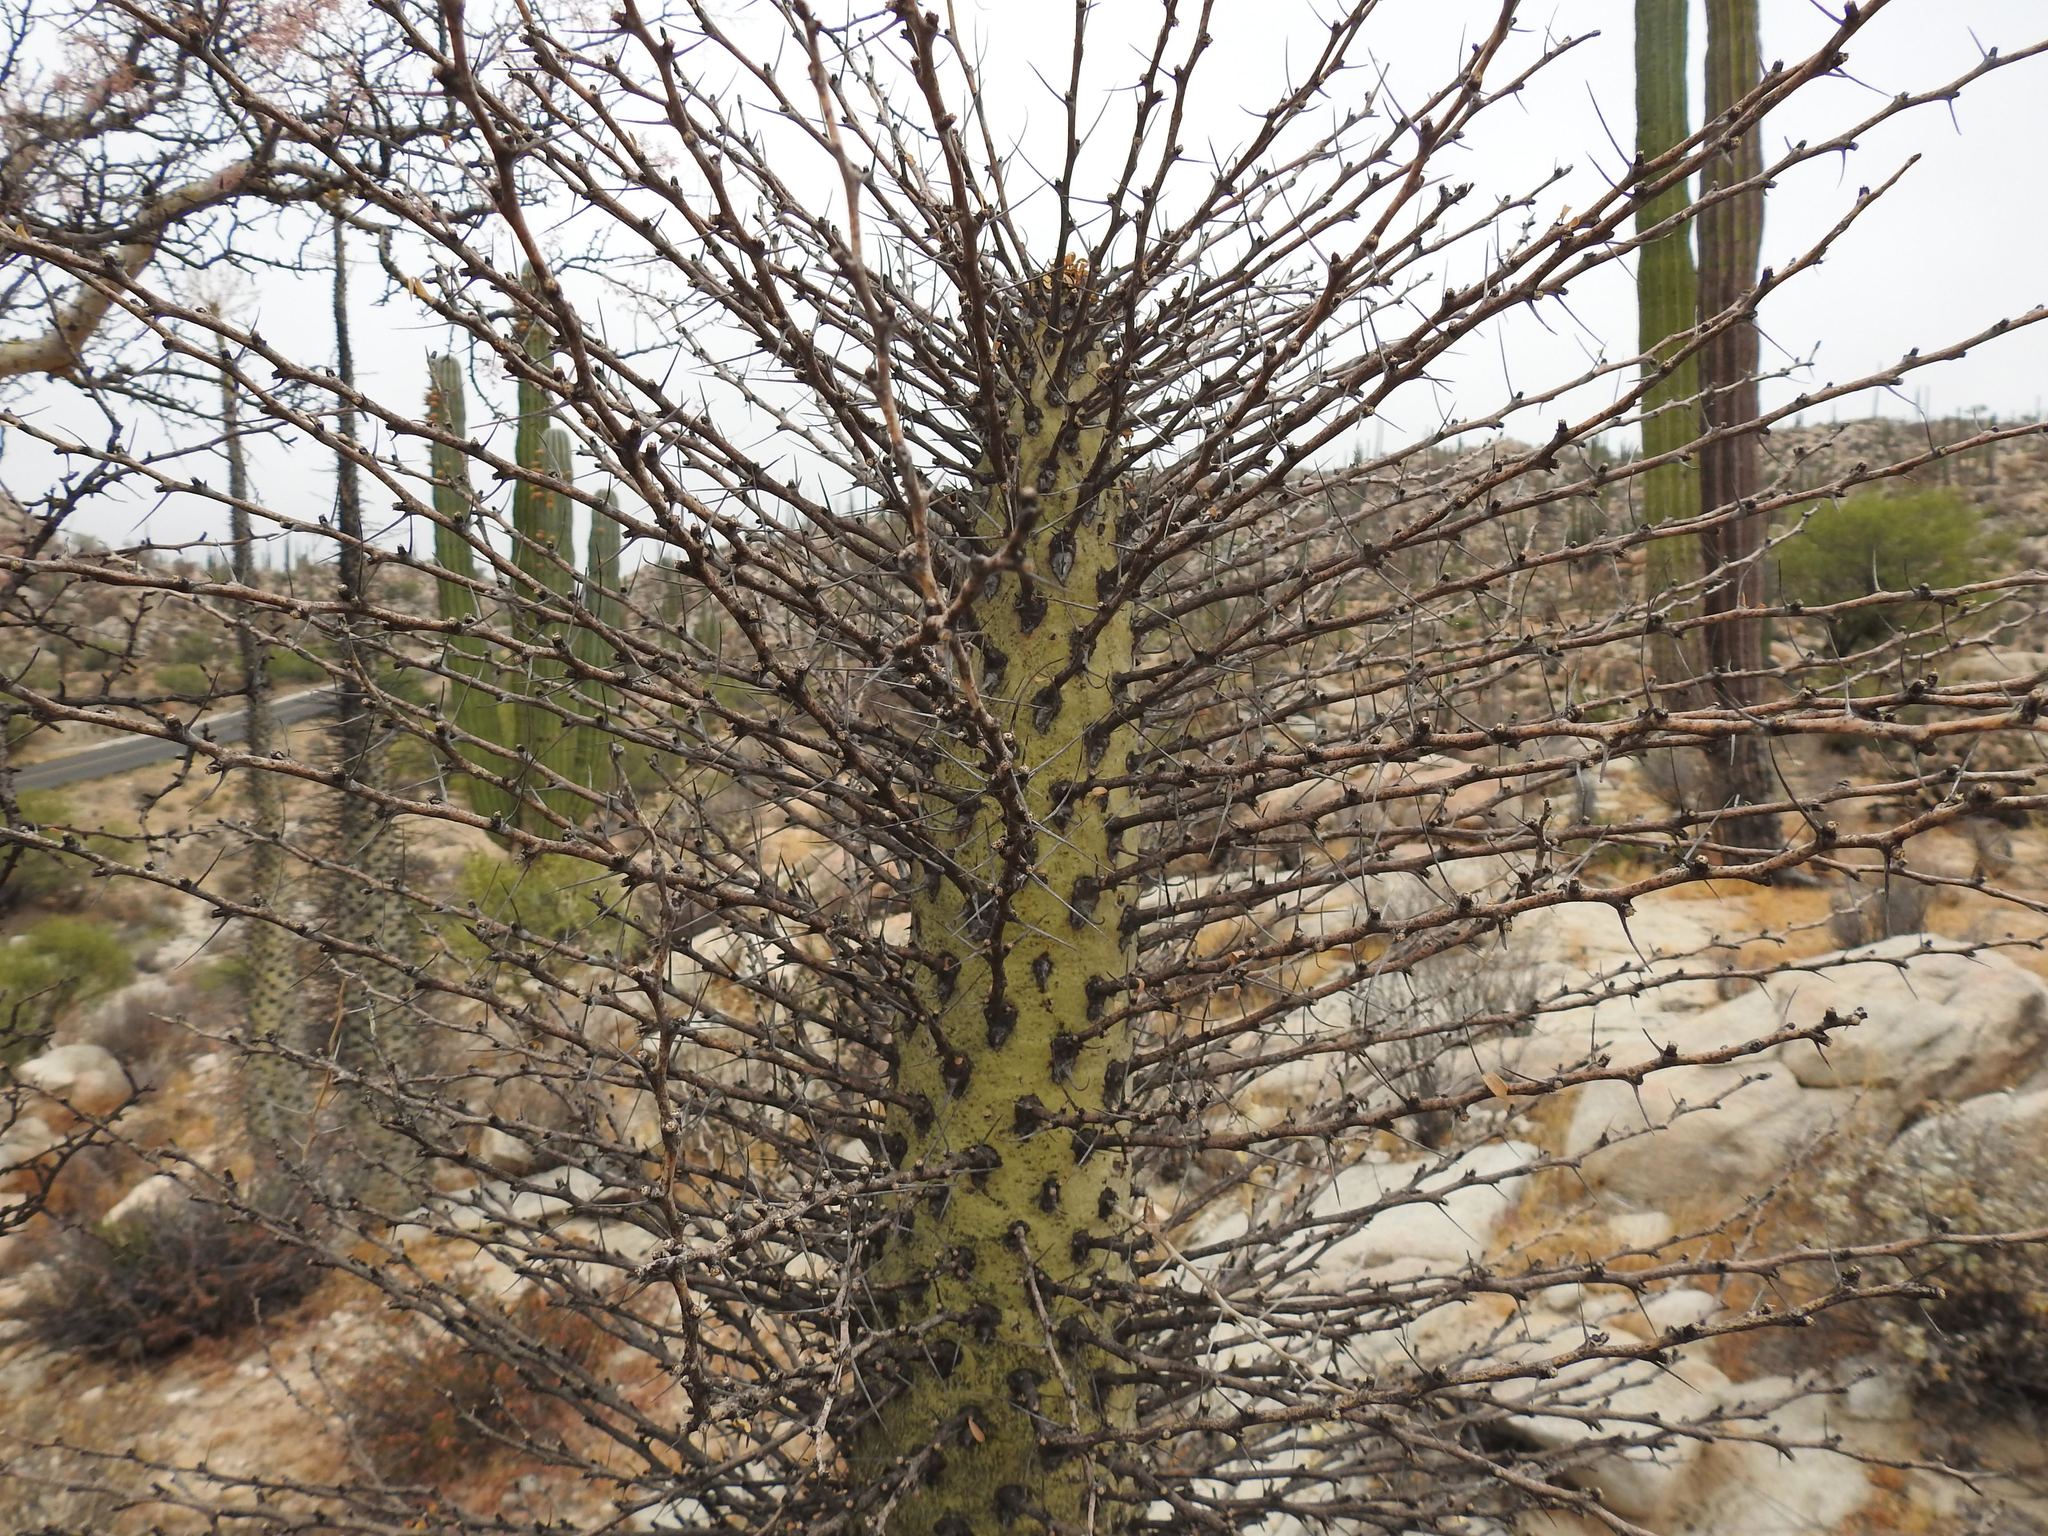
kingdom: Plantae
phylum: Tracheophyta
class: Magnoliopsida
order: Ericales
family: Fouquieriaceae
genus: Fouquieria
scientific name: Fouquieria columnaris
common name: Boojumtree
